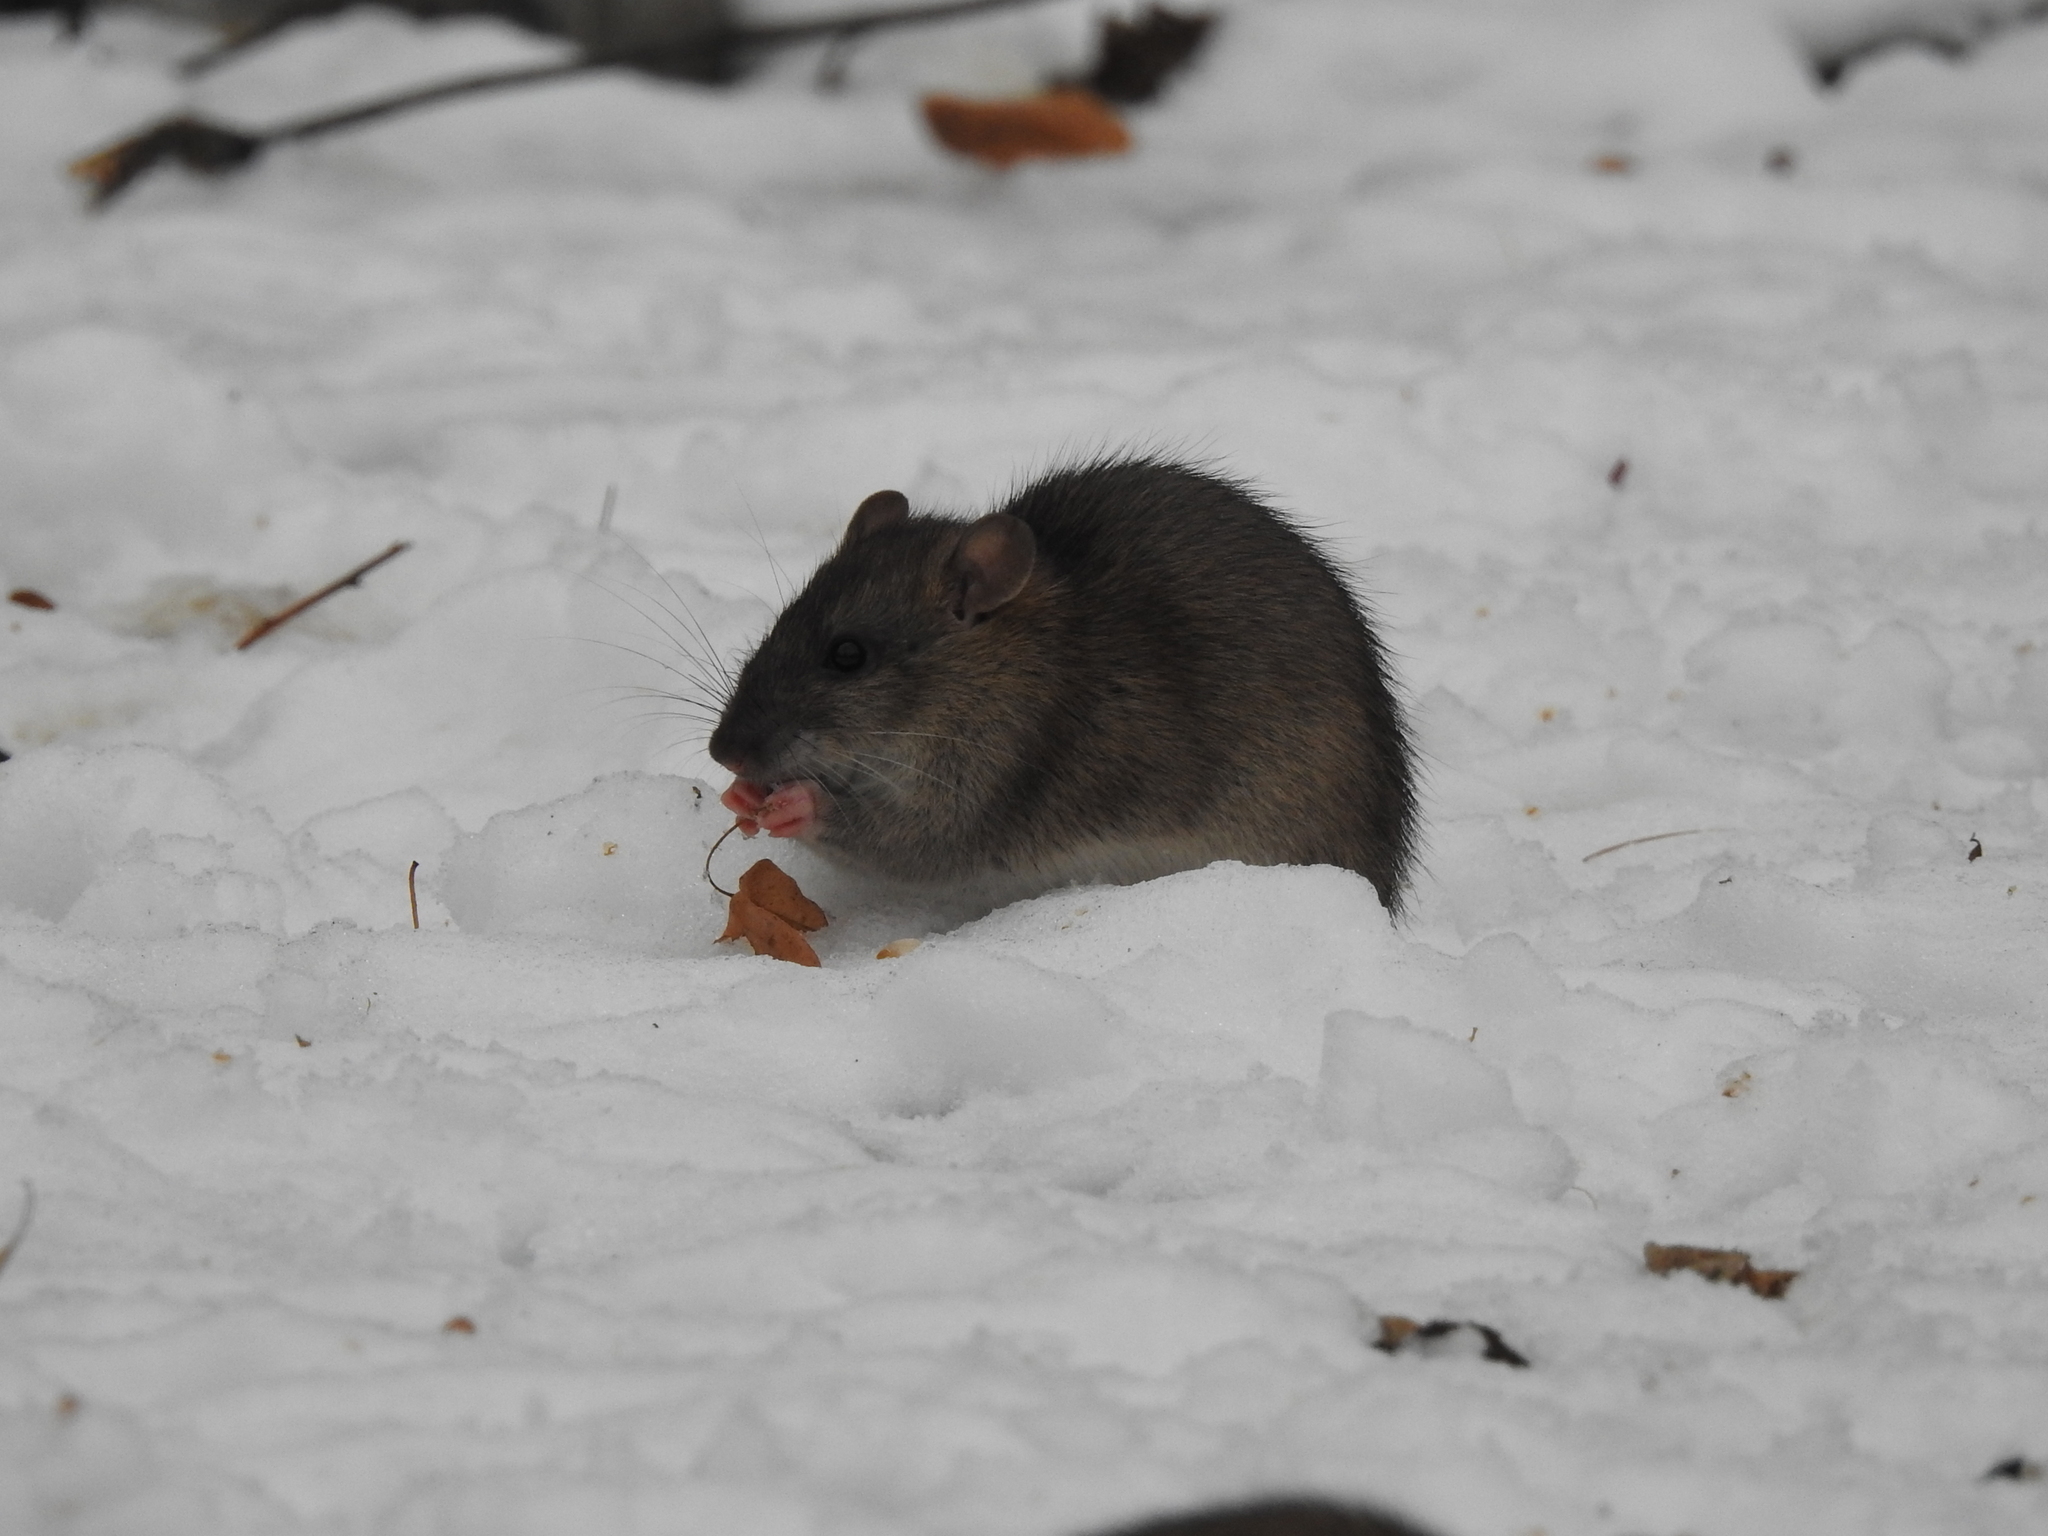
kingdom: Animalia
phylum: Chordata
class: Mammalia
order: Rodentia
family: Muridae
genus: Rattus
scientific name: Rattus norvegicus
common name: Brown rat
